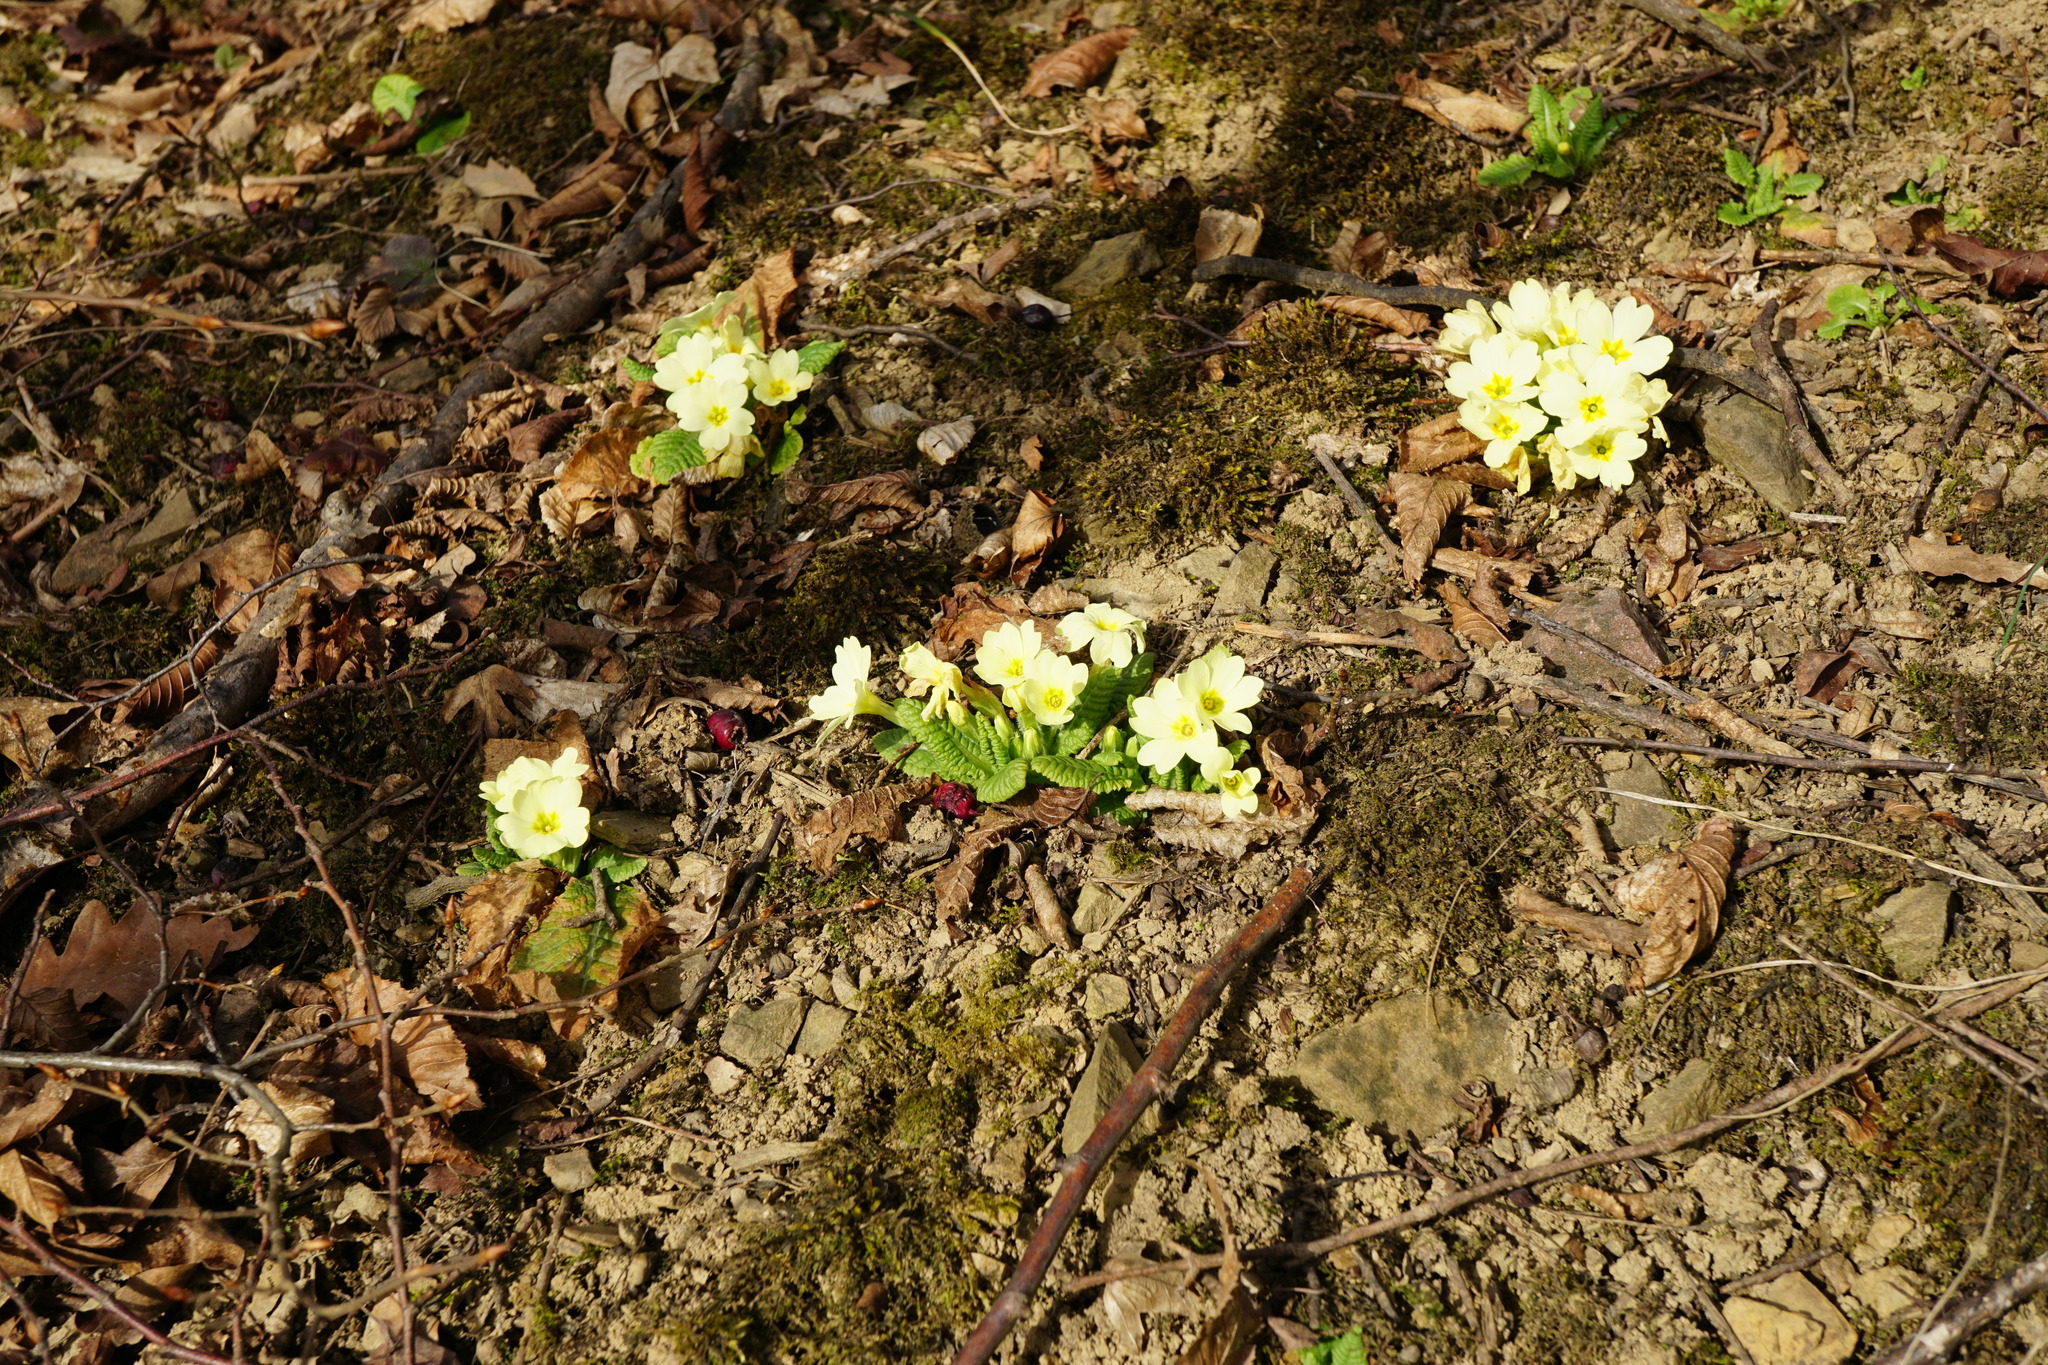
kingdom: Plantae
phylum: Tracheophyta
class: Magnoliopsida
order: Ericales
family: Primulaceae
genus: Primula
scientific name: Primula vulgaris
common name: Primrose
